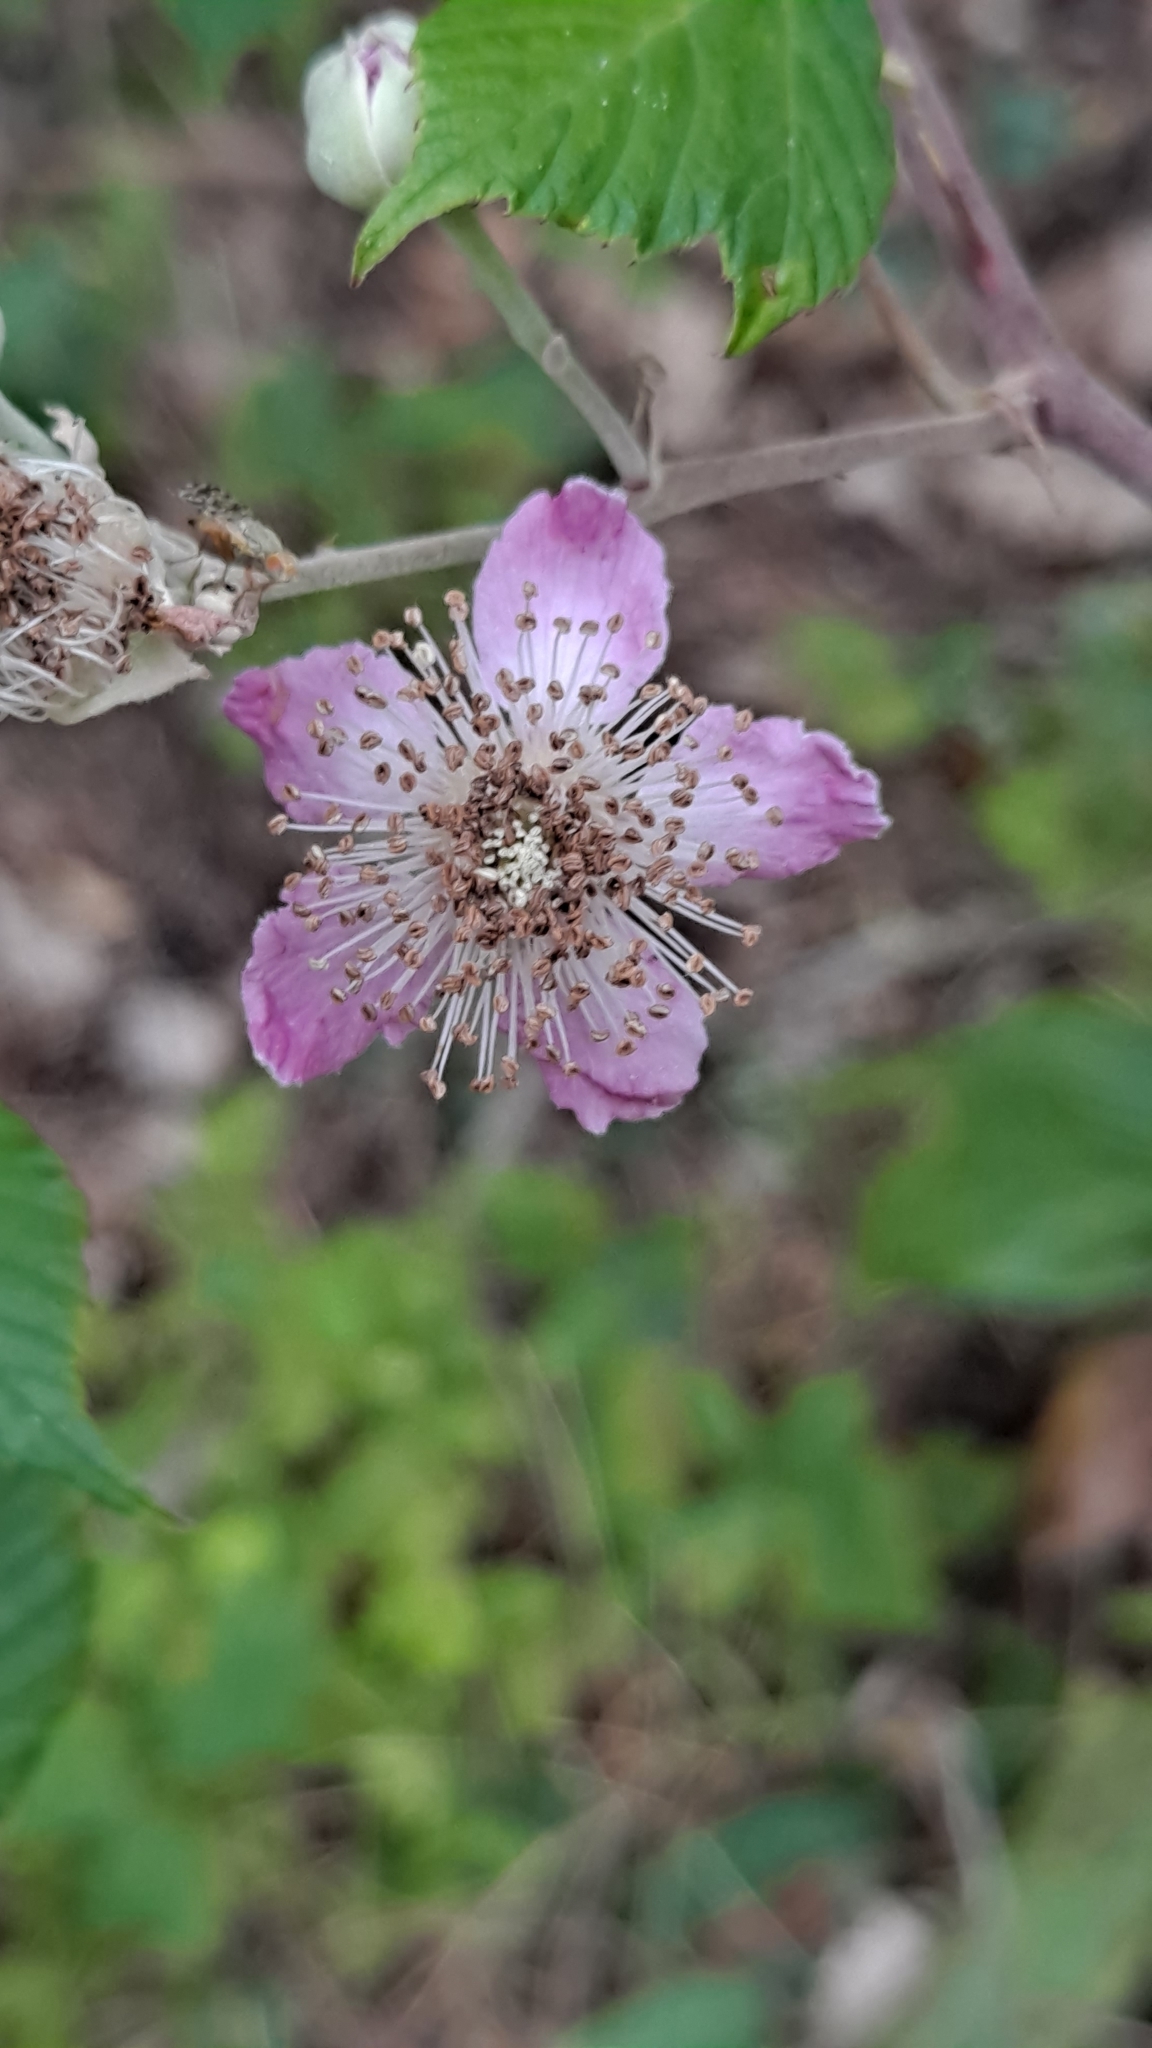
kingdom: Plantae
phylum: Tracheophyta
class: Magnoliopsida
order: Rosales
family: Rosaceae
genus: Rubus
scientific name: Rubus ulmifolius
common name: Elmleaf blackberry
